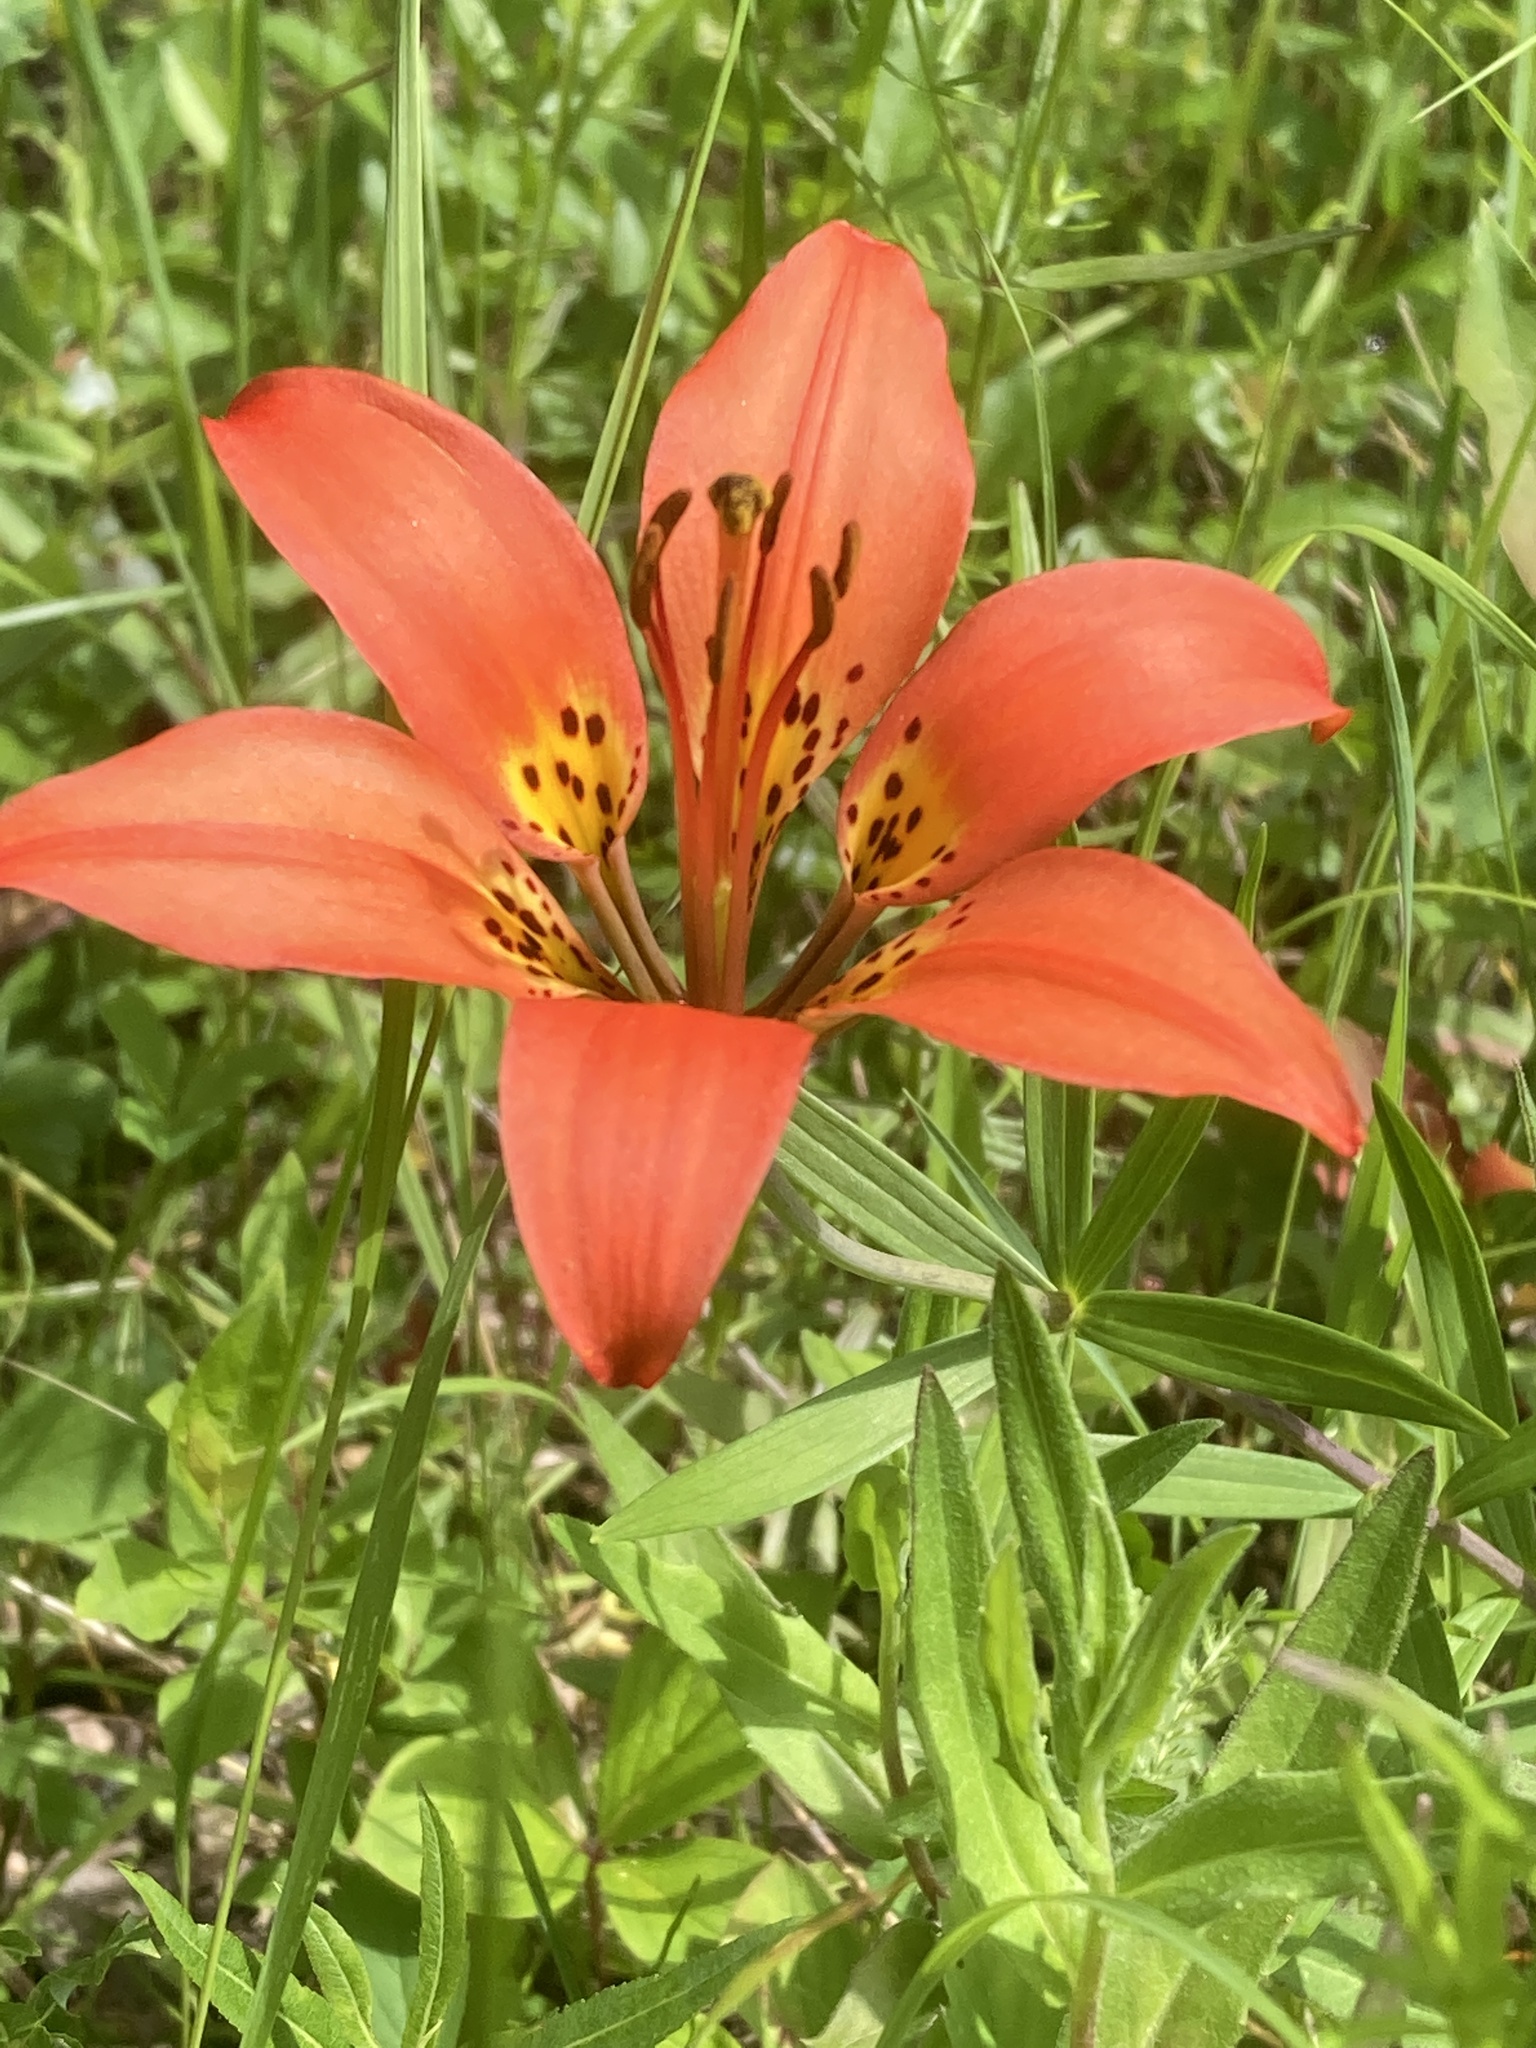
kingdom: Plantae
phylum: Tracheophyta
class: Liliopsida
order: Liliales
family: Liliaceae
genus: Lilium
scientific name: Lilium philadelphicum
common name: Red lily
